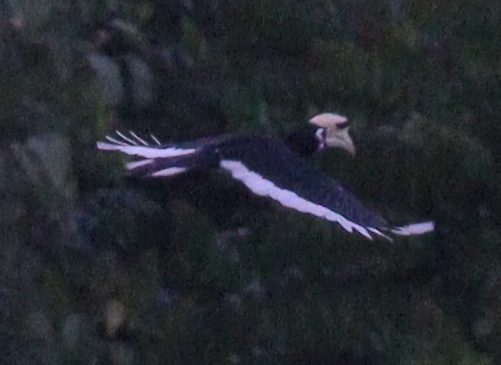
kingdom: Animalia
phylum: Chordata
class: Aves
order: Bucerotiformes
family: Bucerotidae
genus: Anthracoceros
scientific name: Anthracoceros albirostris
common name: Oriental pied-hornbill
